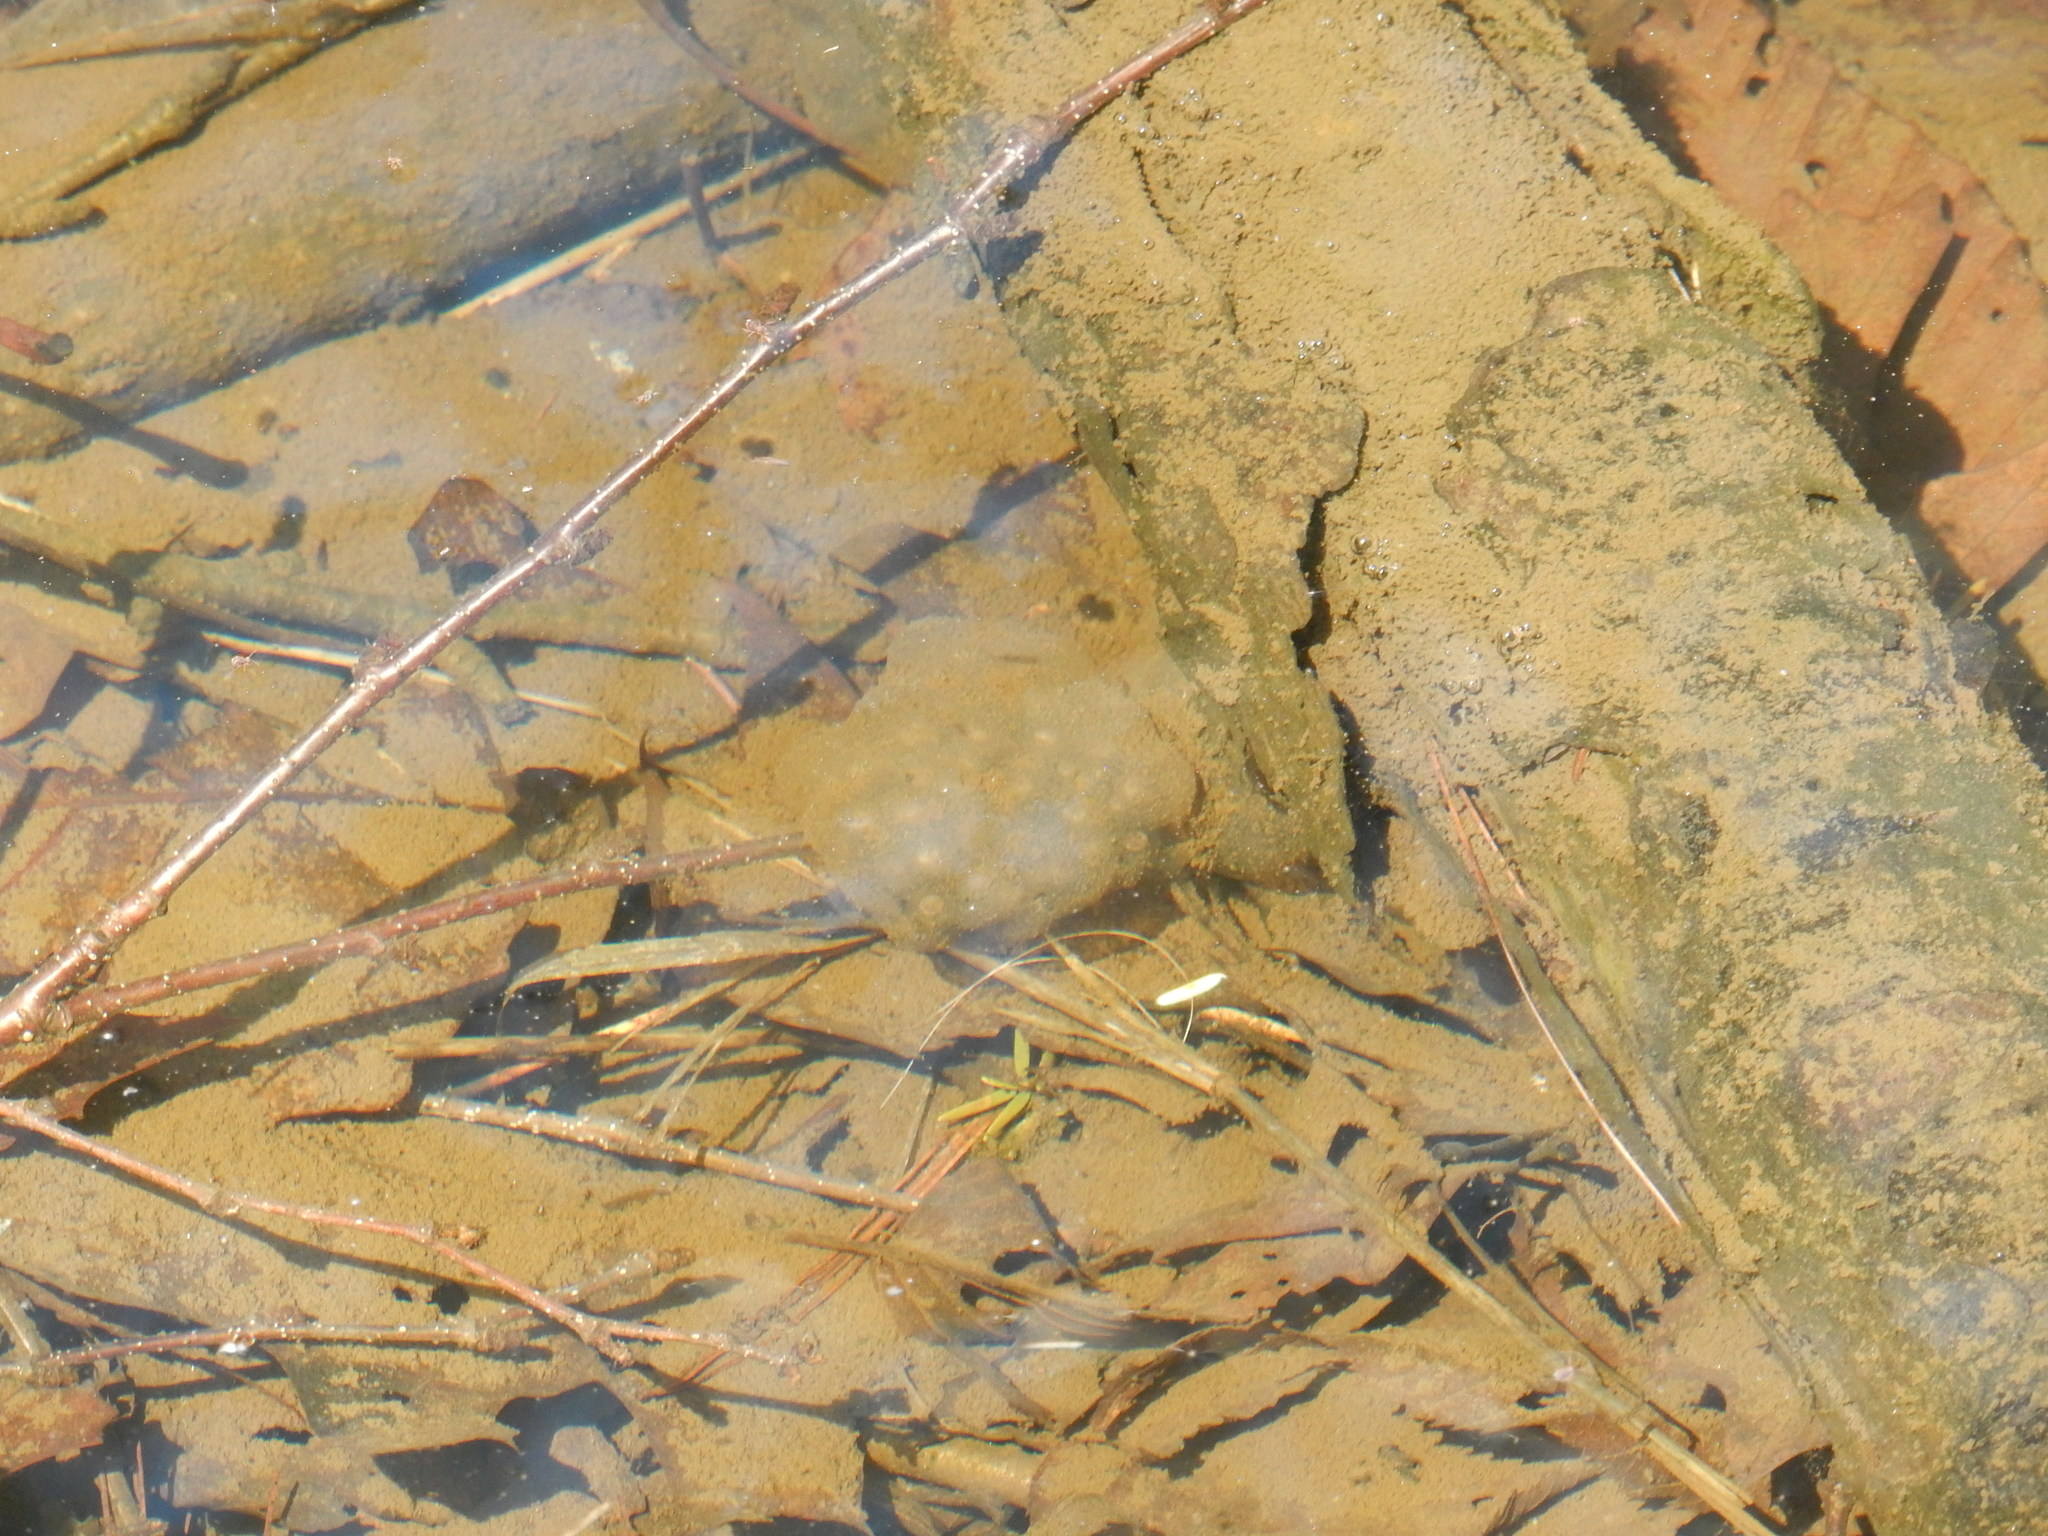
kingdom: Animalia
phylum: Chordata
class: Amphibia
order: Caudata
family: Ambystomatidae
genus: Ambystoma
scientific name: Ambystoma maculatum
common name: Spotted salamander
